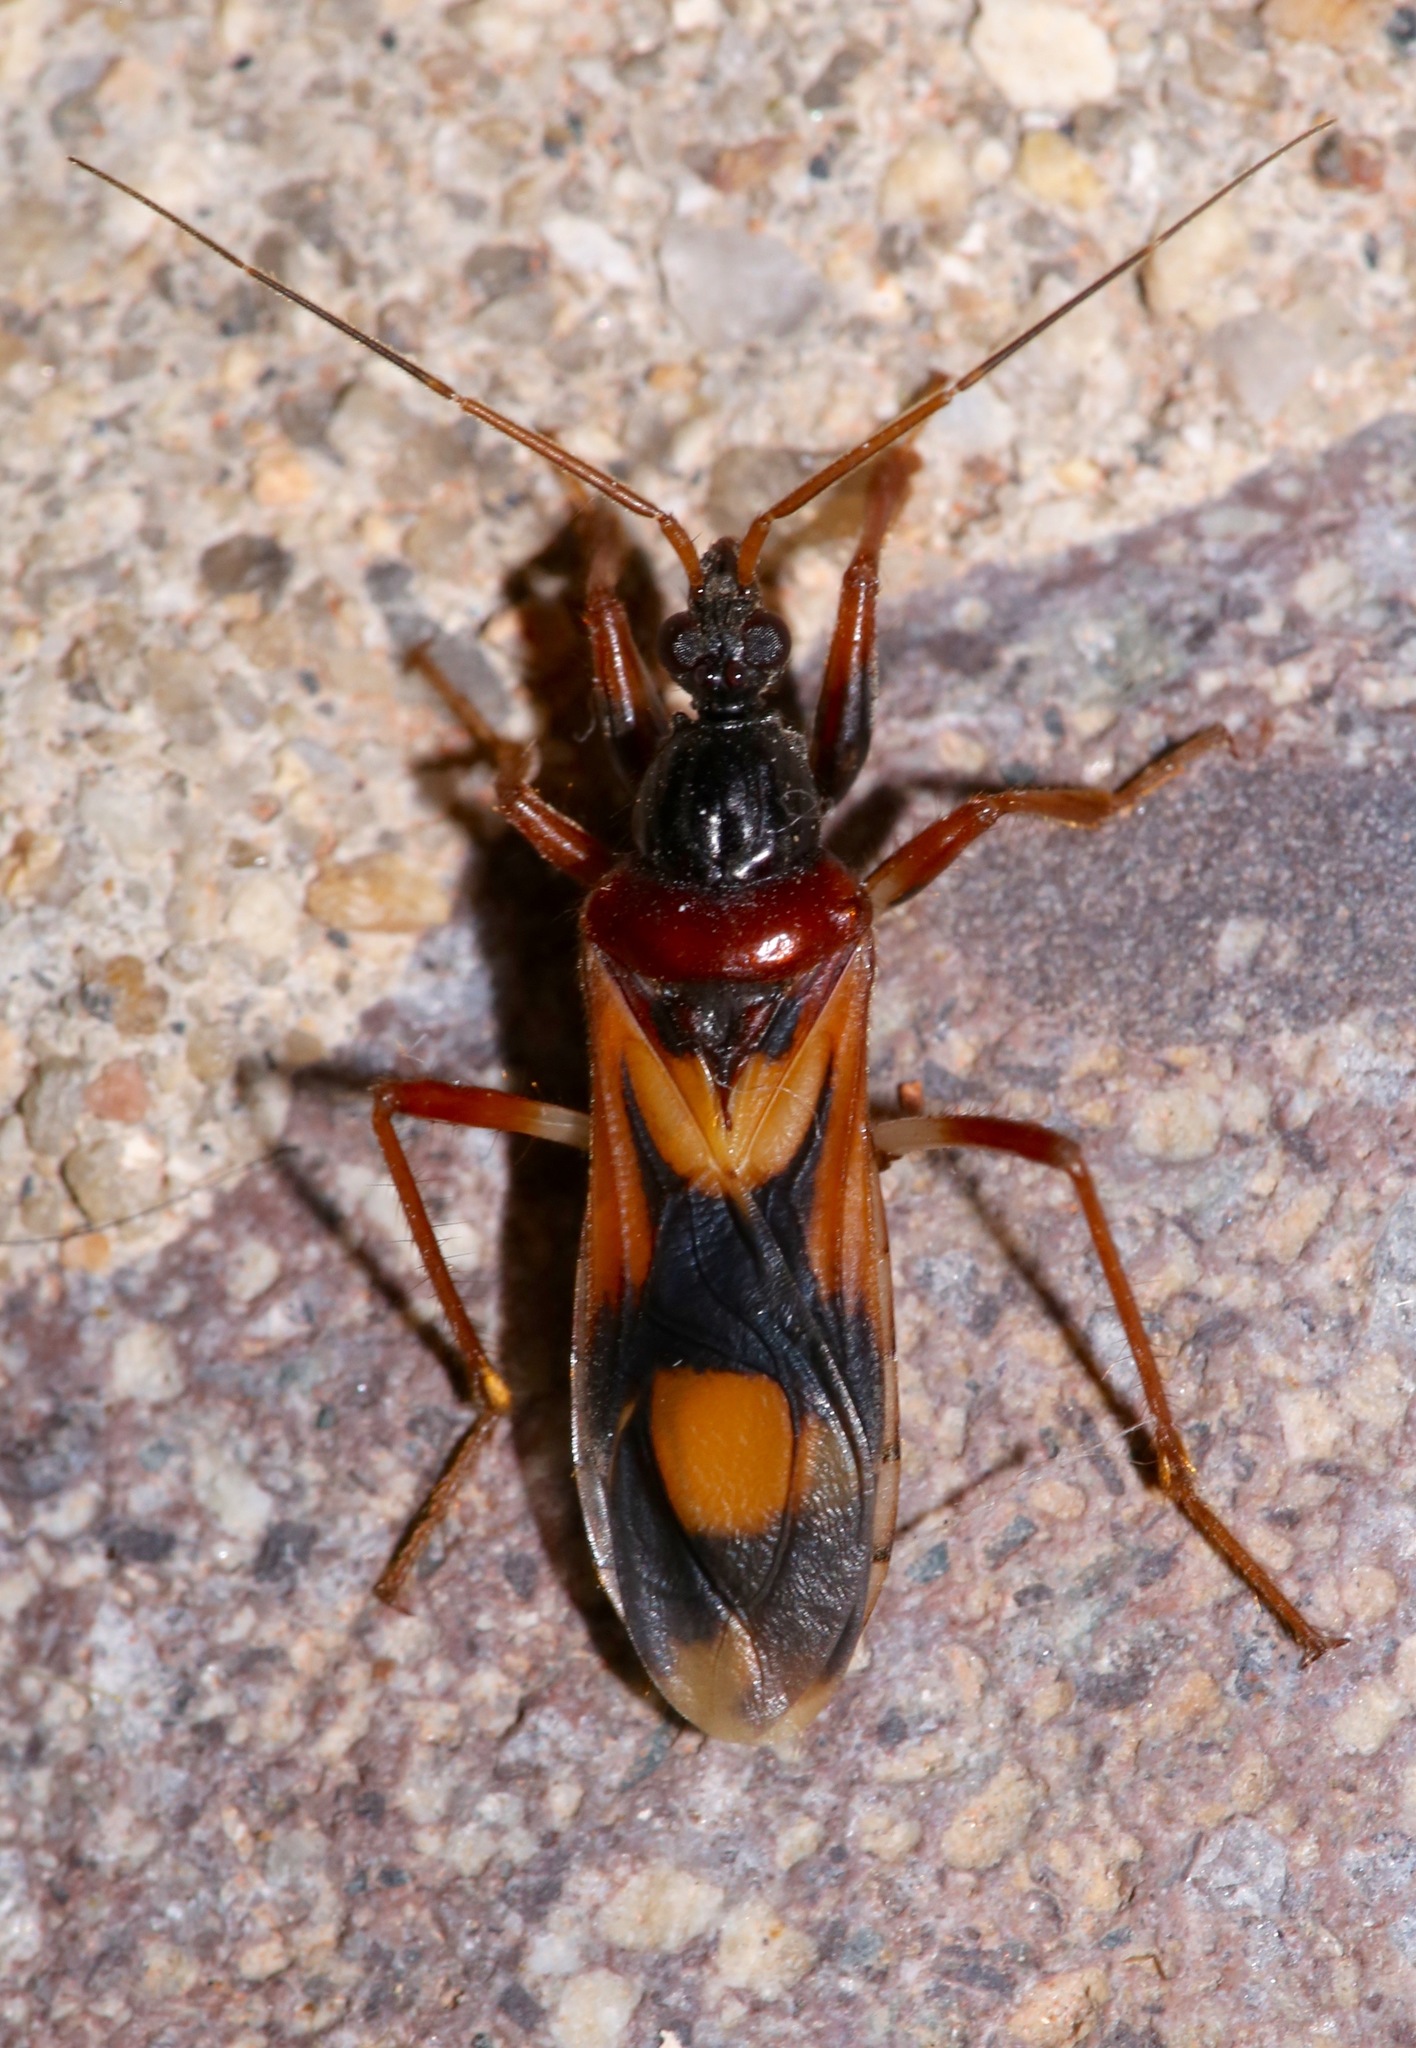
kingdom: Animalia
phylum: Arthropoda
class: Insecta
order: Hemiptera
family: Reduviidae
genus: Rasahus
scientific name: Rasahus thoracicus
